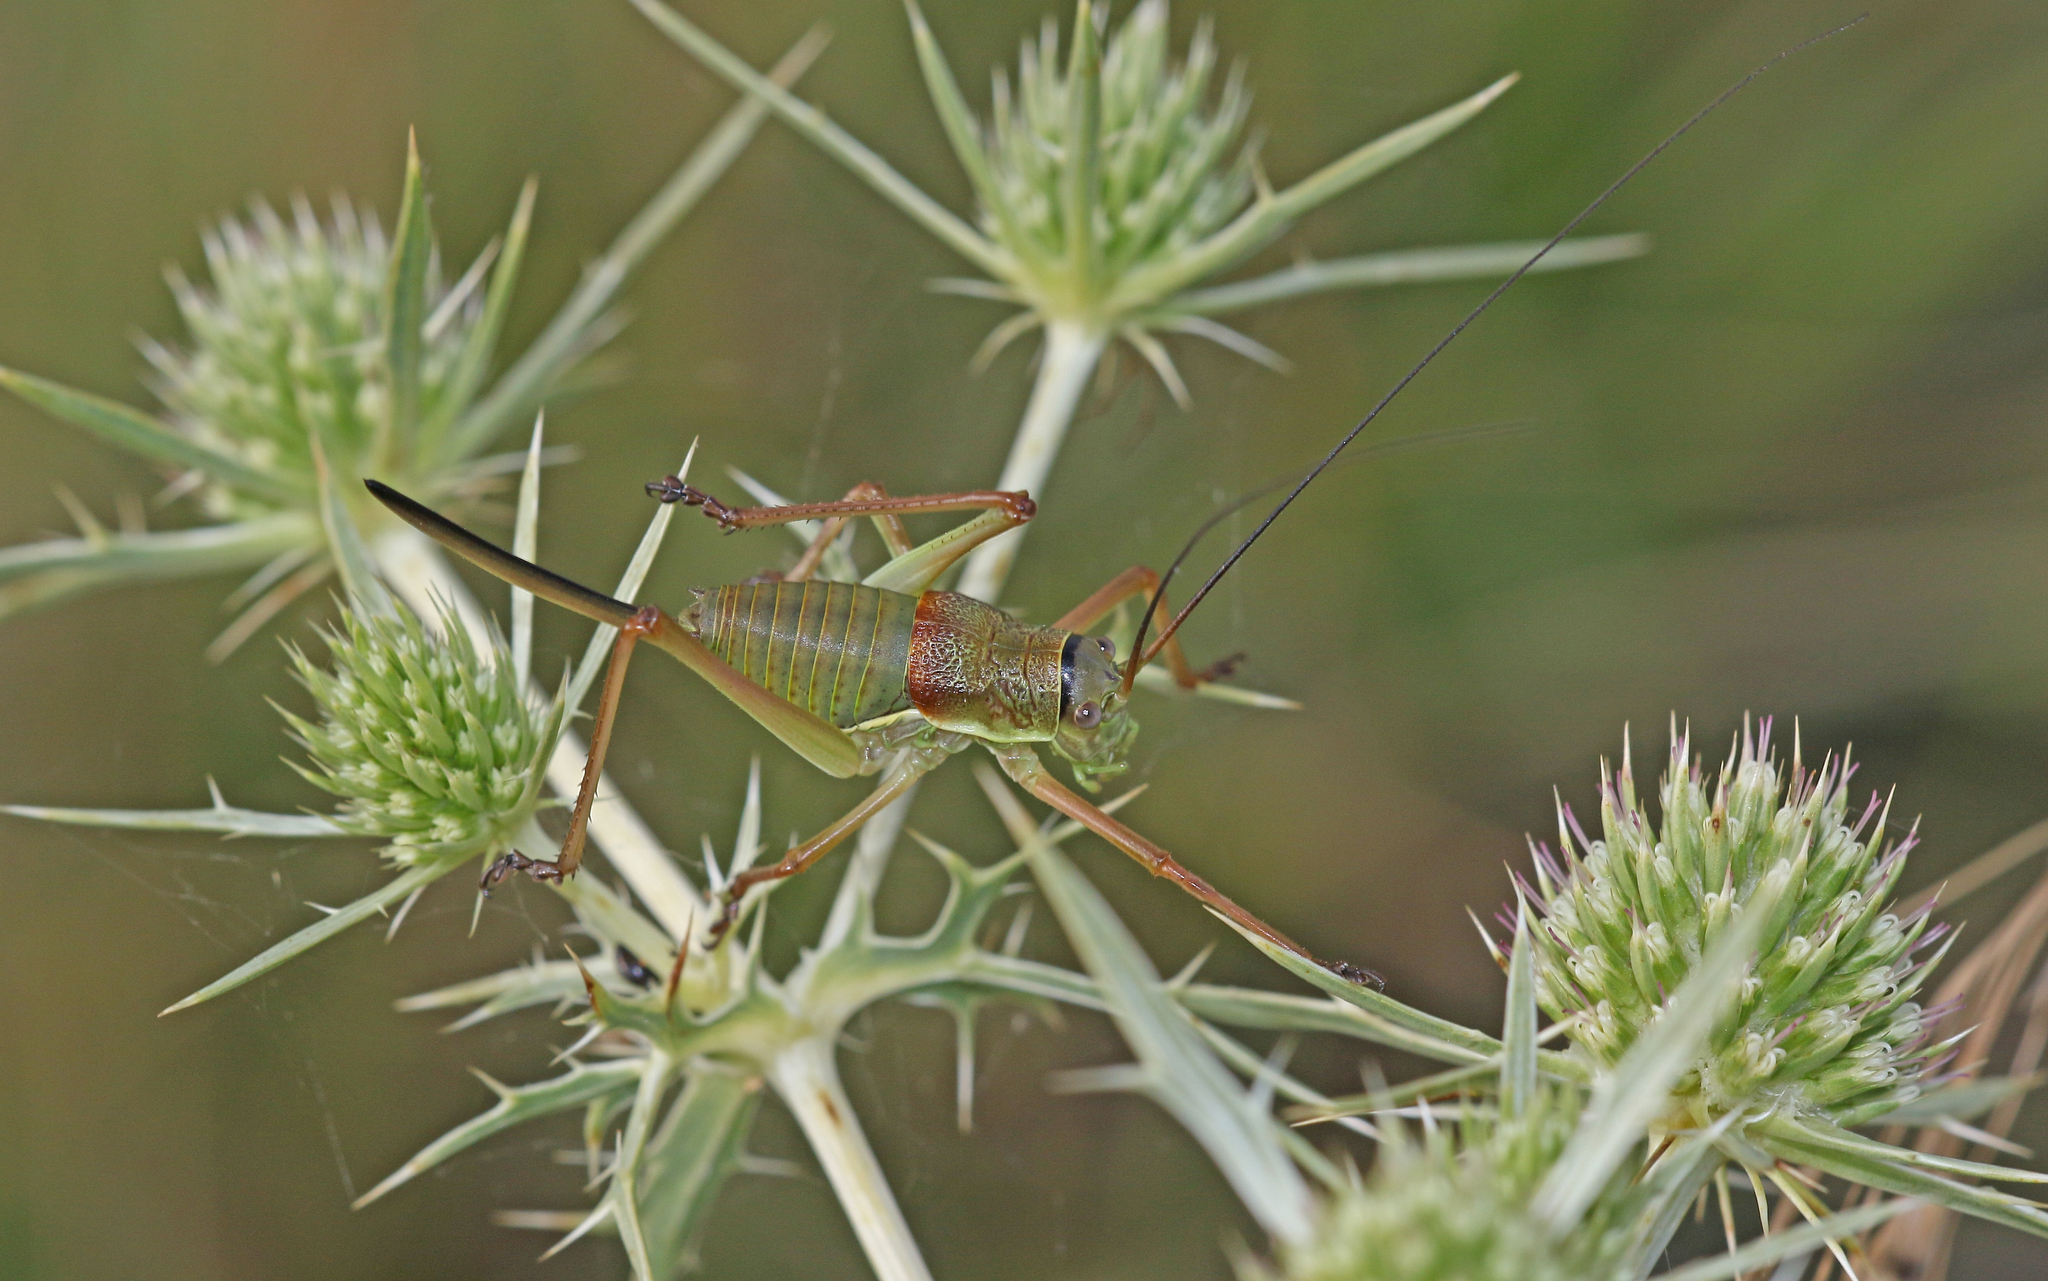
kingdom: Animalia
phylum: Arthropoda
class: Insecta
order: Orthoptera
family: Tettigoniidae
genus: Ephippiger
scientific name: Ephippiger diurnus
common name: Western saddle bush-cricket
